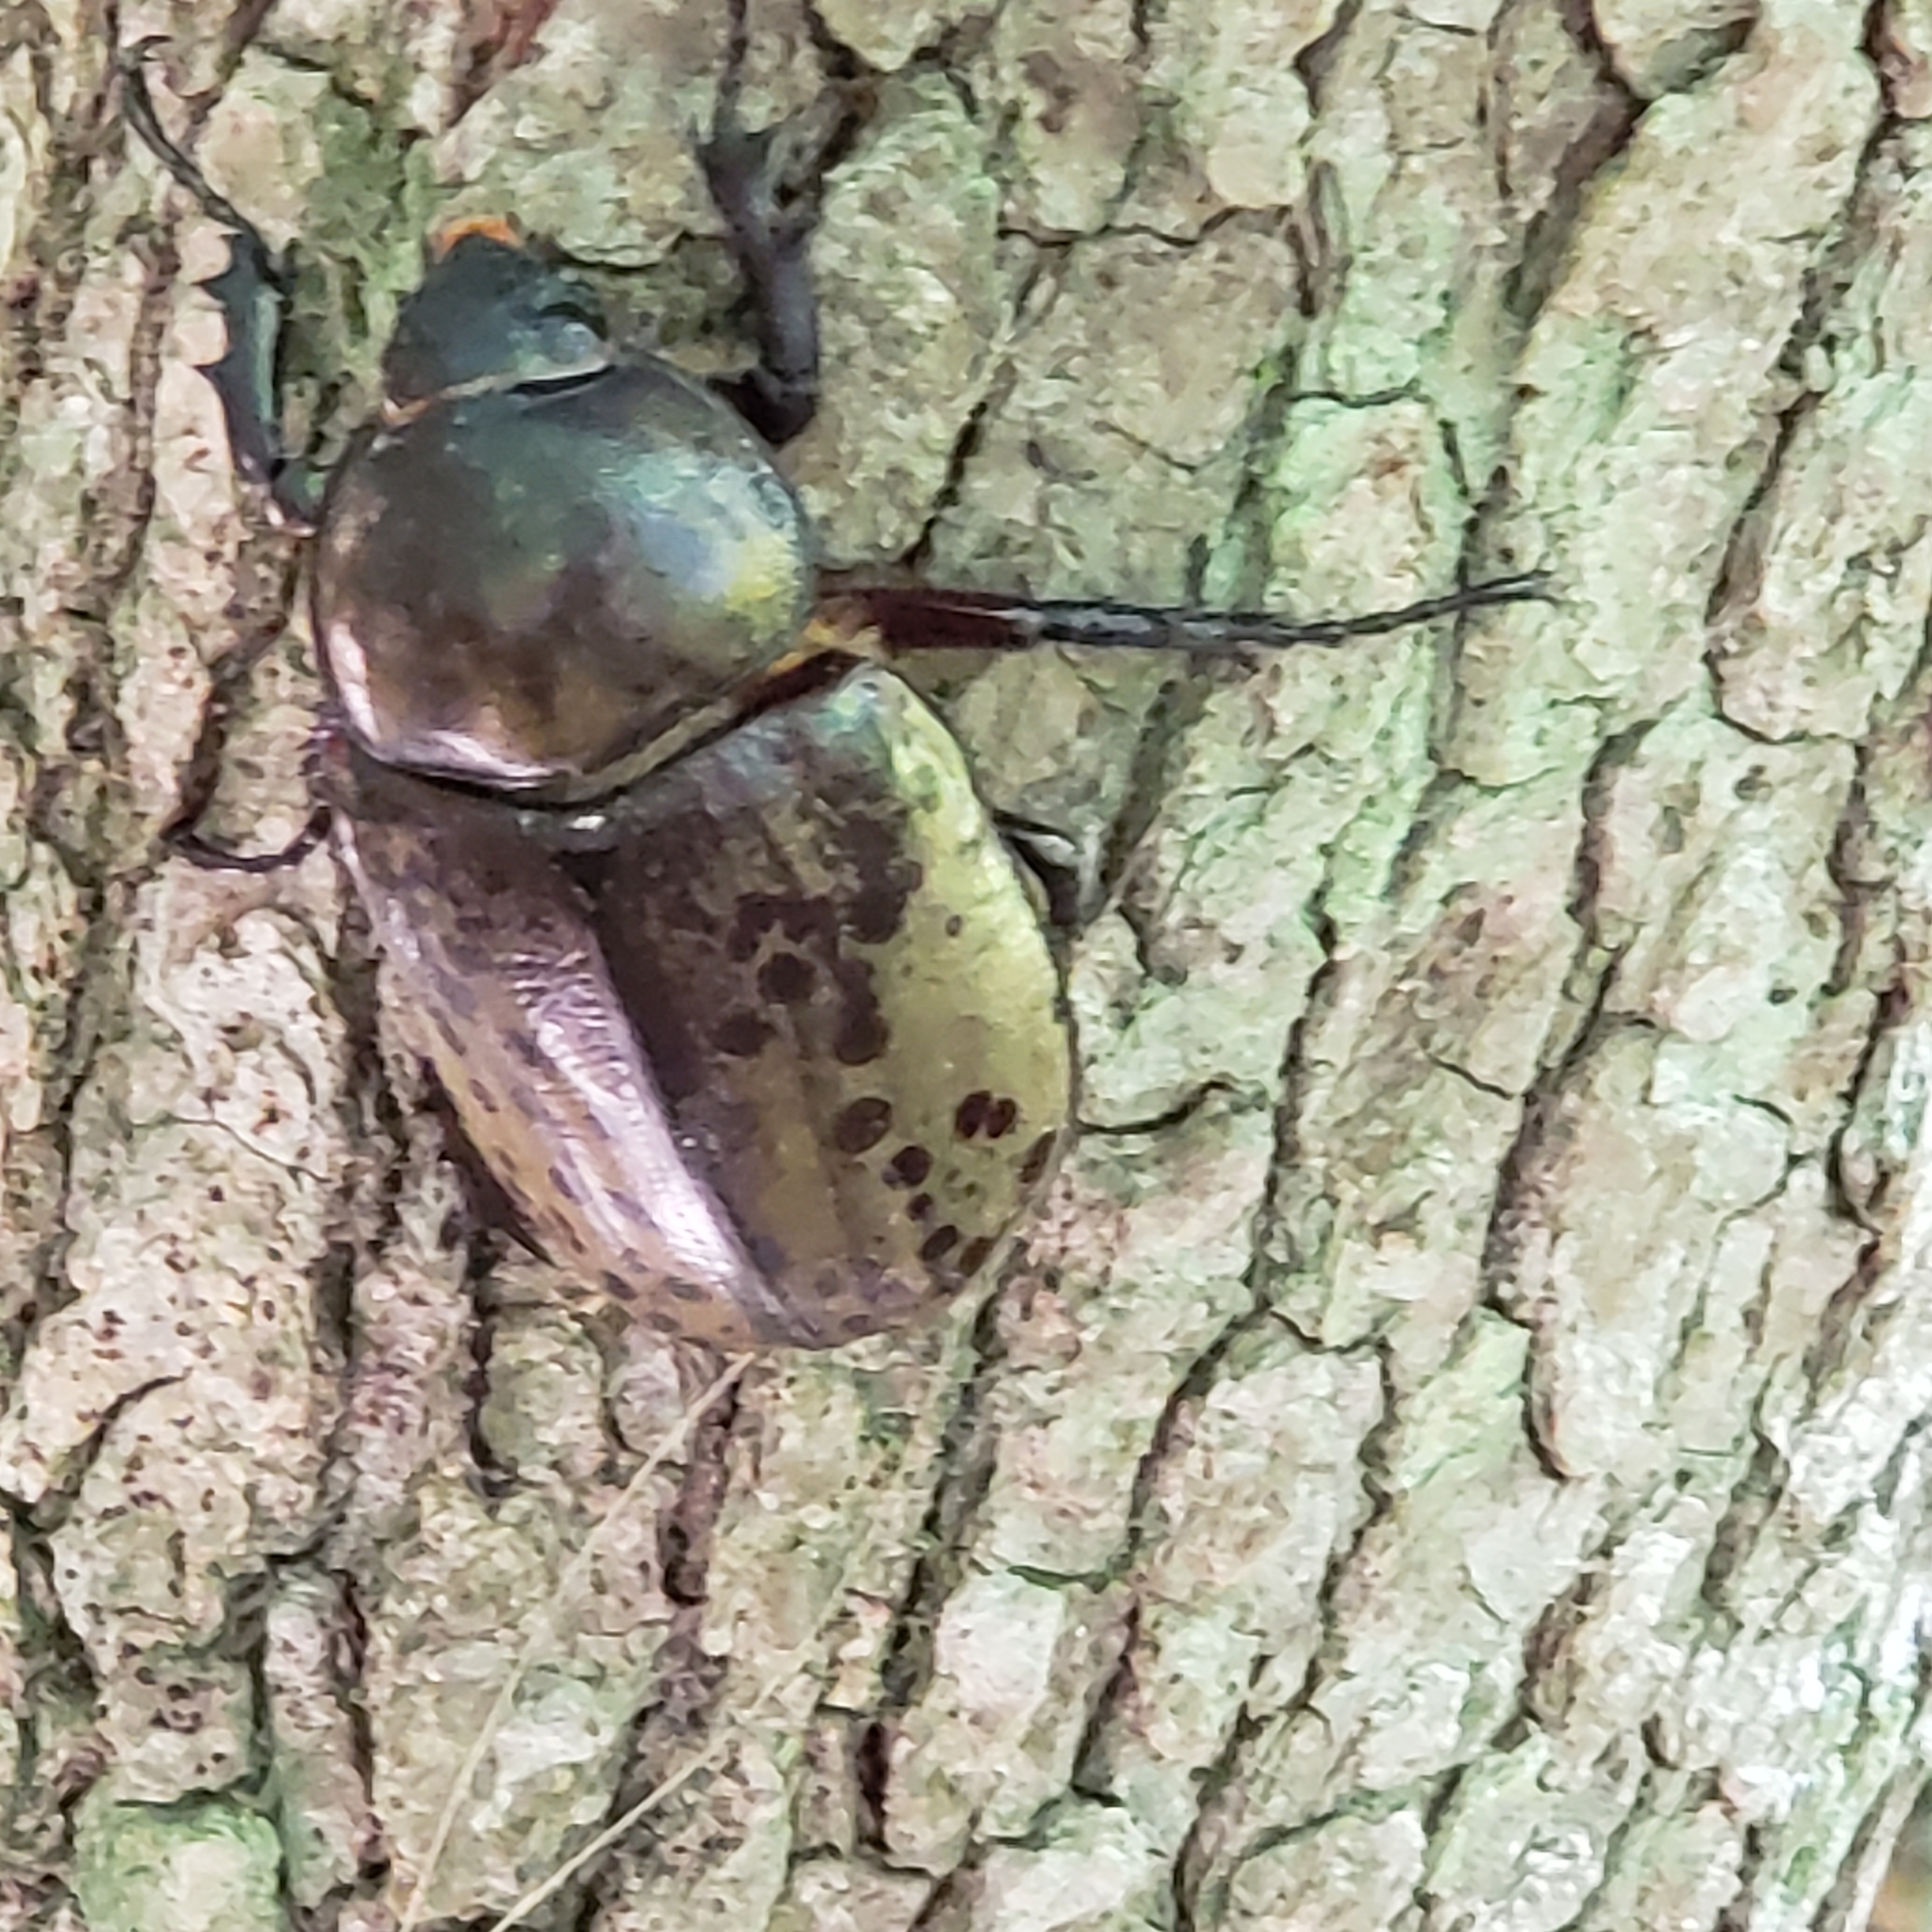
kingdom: Animalia
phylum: Arthropoda
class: Insecta
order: Coleoptera
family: Scarabaeidae
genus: Dynastes
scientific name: Dynastes tityus
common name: Eastern hercules beetle
